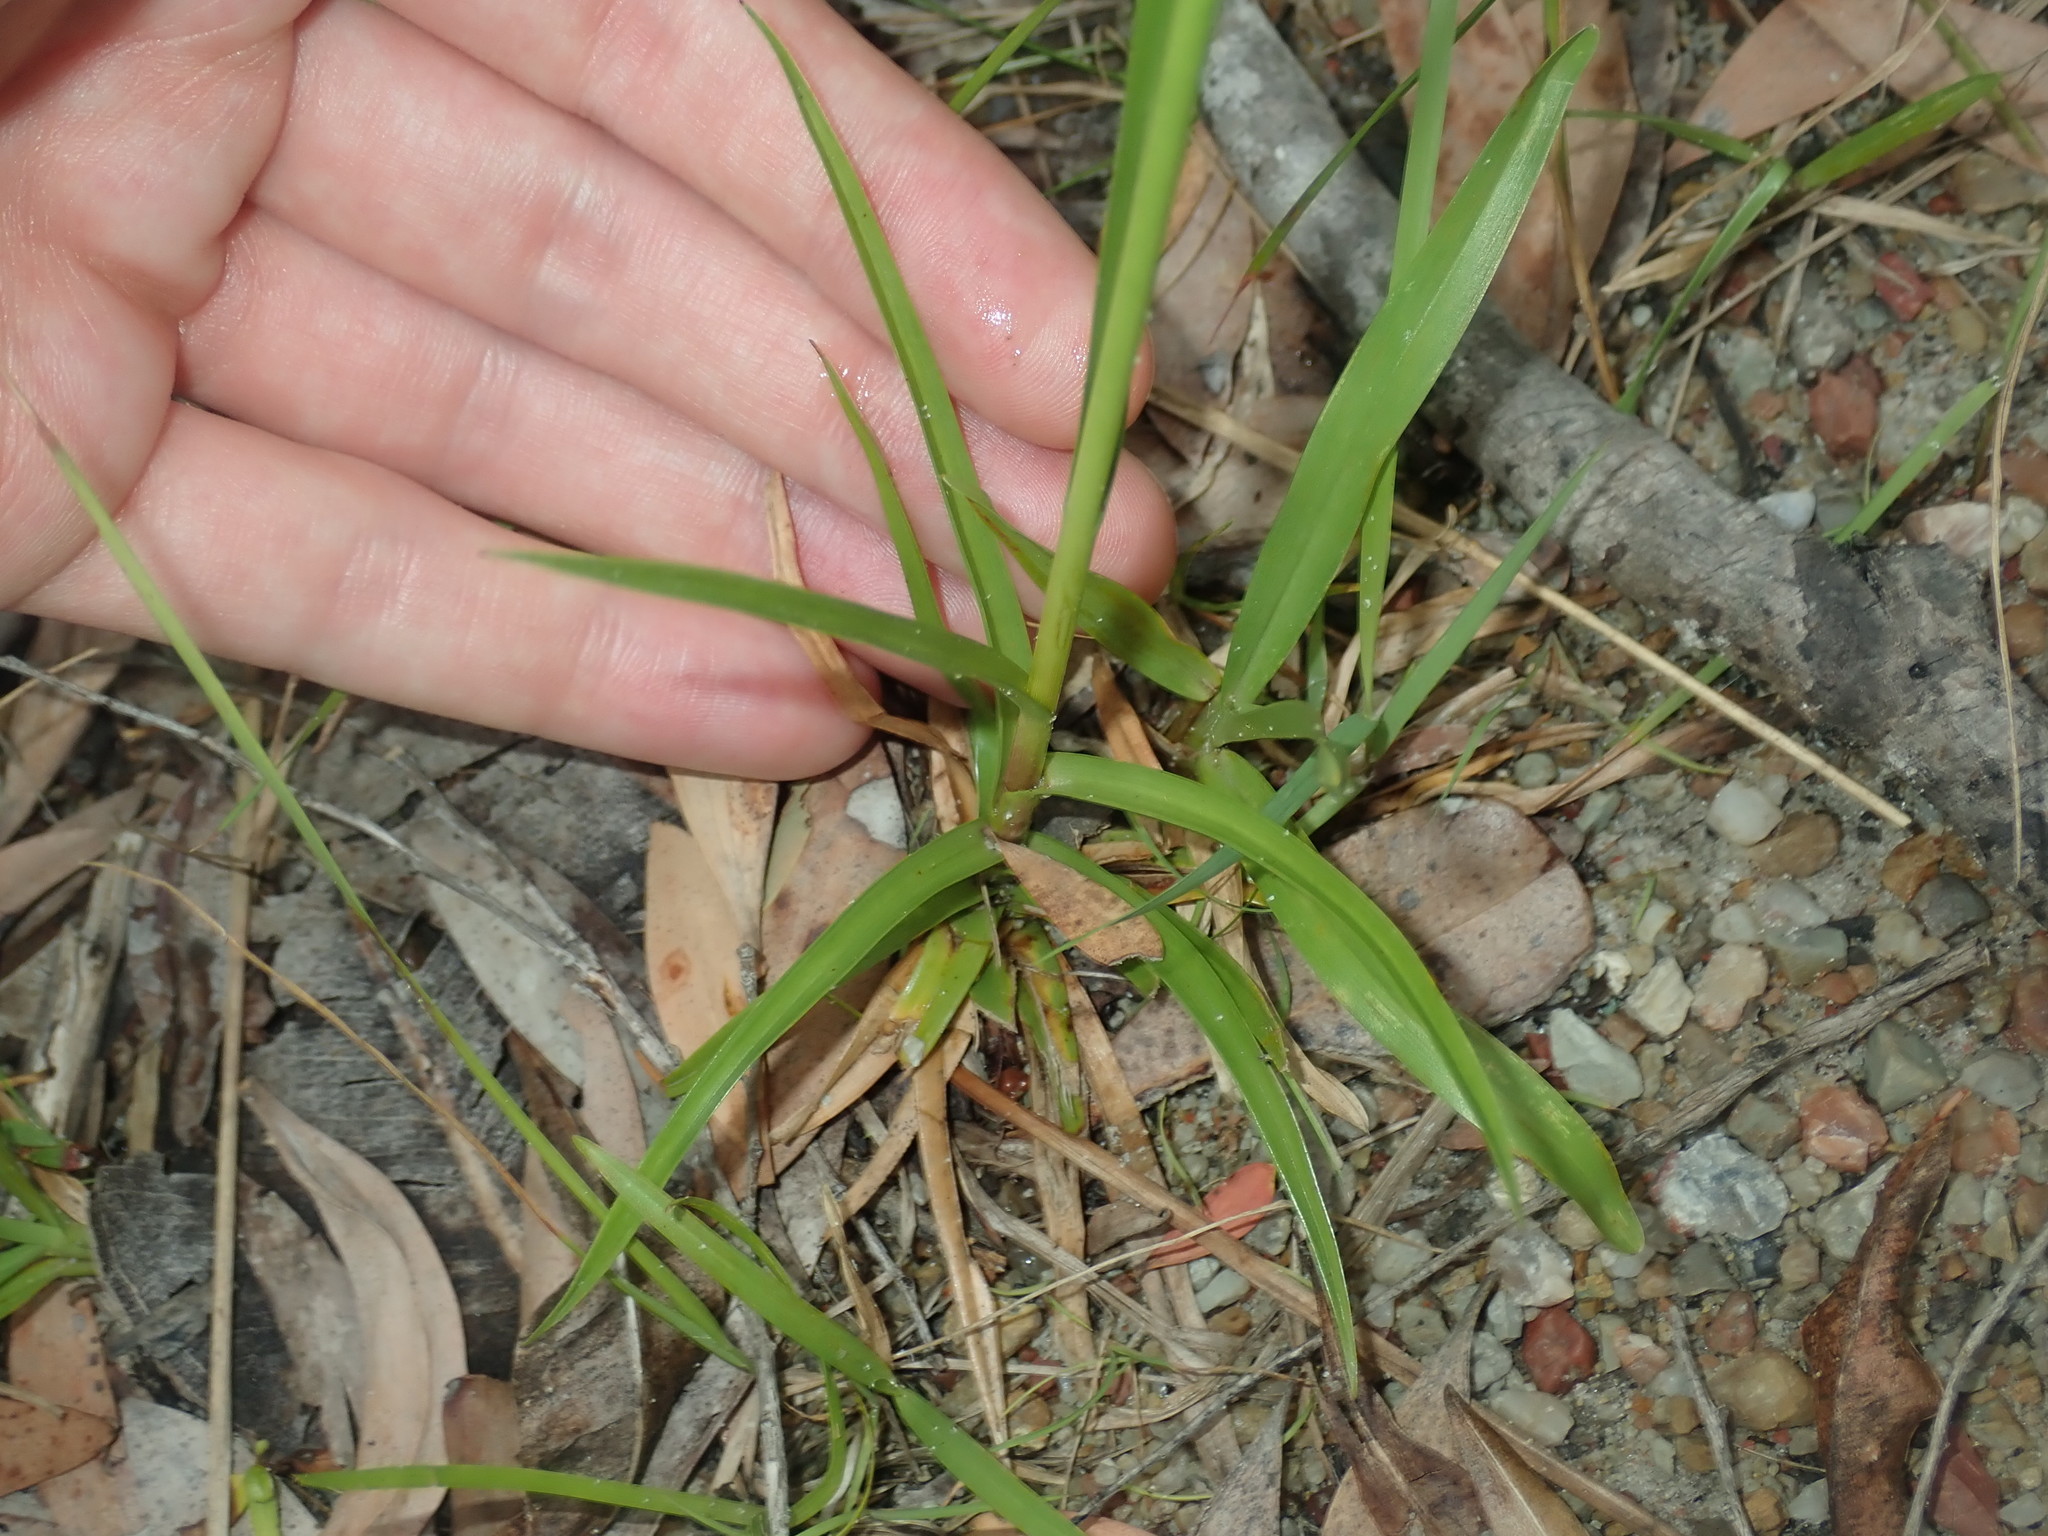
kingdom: Plantae
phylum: Tracheophyta
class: Liliopsida
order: Poales
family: Cyperaceae
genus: Cyperus
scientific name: Cyperus polystachyos
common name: Bunchy flat sedge
